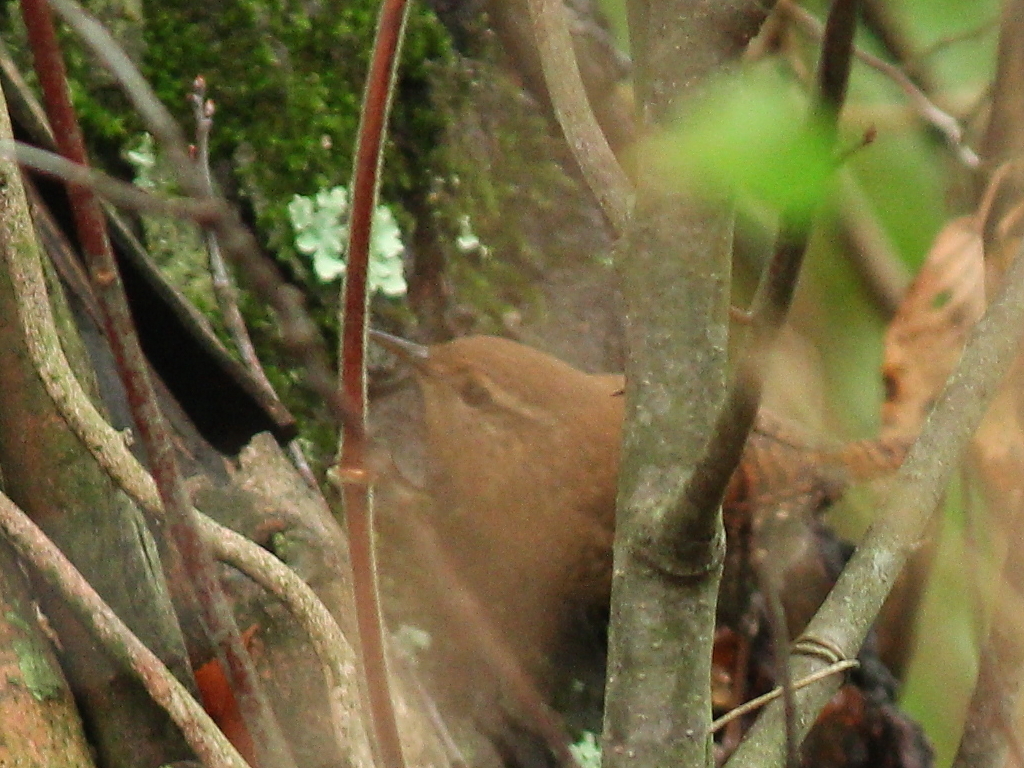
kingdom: Animalia
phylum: Chordata
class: Aves
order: Passeriformes
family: Troglodytidae
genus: Troglodytes
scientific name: Troglodytes hiemalis
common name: Winter wren
